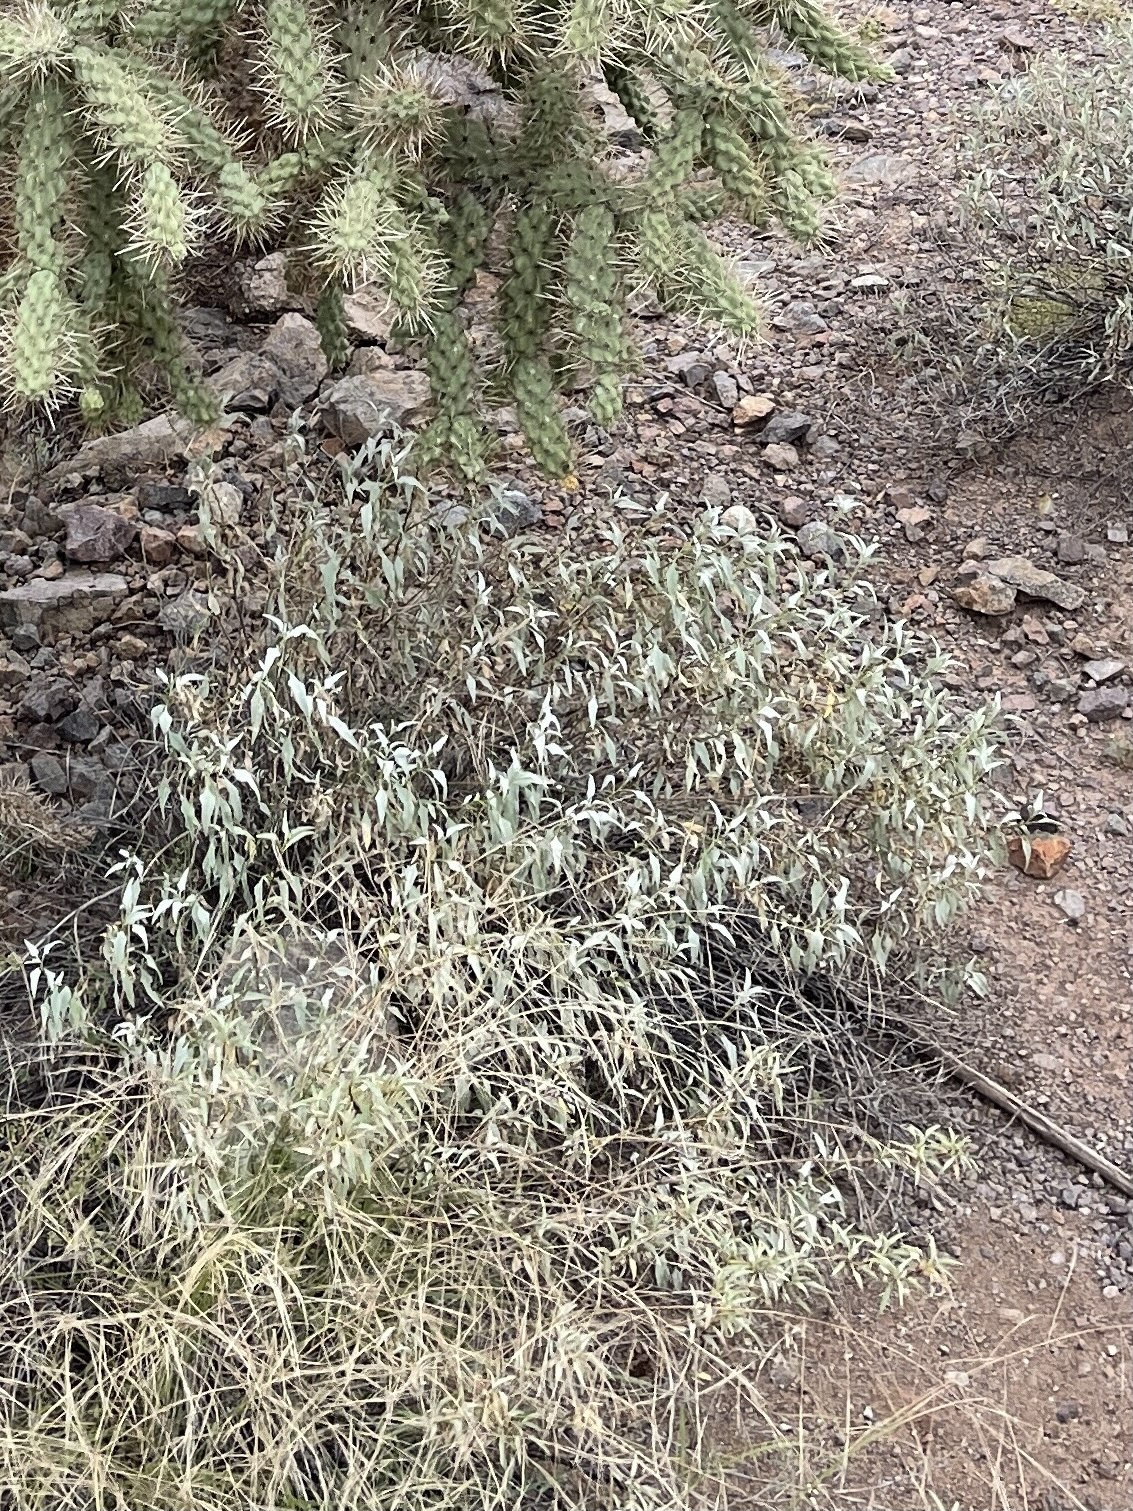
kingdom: Plantae
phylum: Tracheophyta
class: Magnoliopsida
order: Asterales
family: Asteraceae
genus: Ambrosia
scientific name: Ambrosia deltoidea
